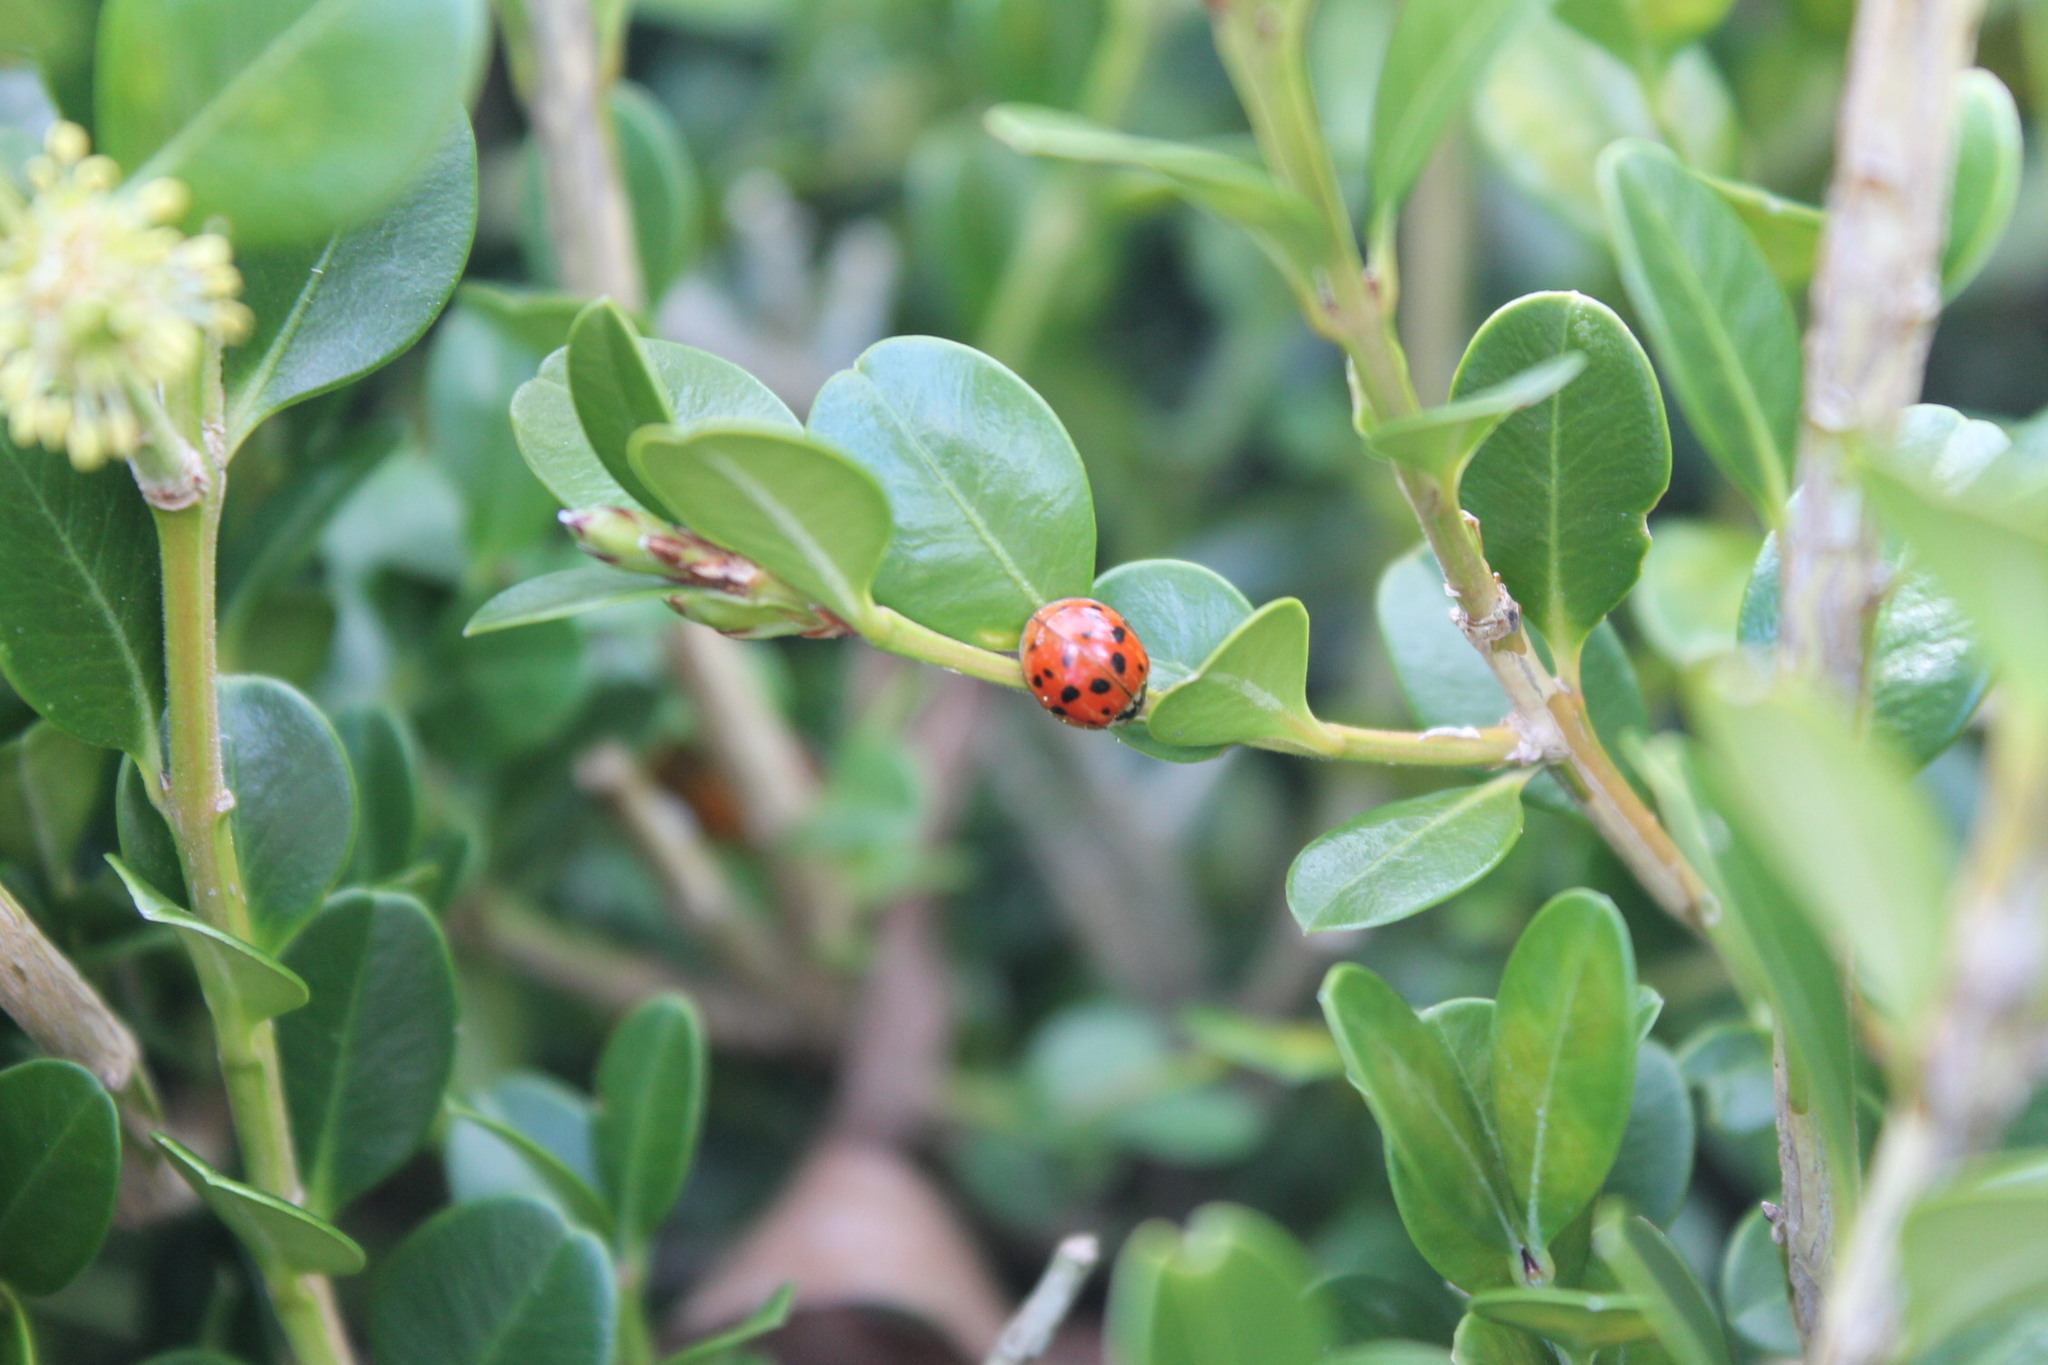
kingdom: Animalia
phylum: Arthropoda
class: Insecta
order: Coleoptera
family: Coccinellidae
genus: Harmonia
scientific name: Harmonia axyridis
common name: Harlequin ladybird
